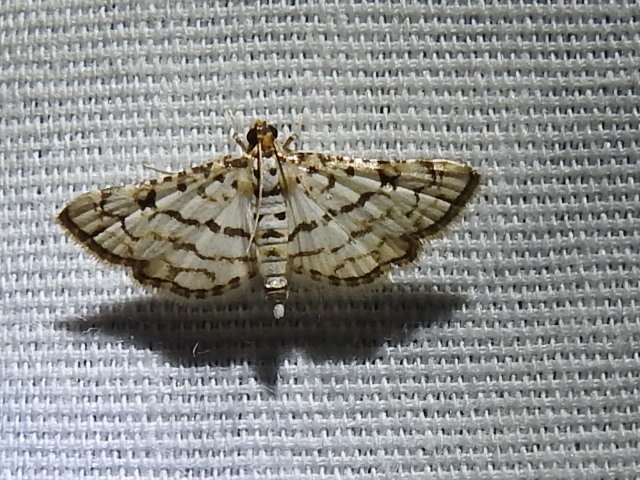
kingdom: Animalia
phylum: Arthropoda
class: Insecta
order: Lepidoptera
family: Crambidae
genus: Hileithia
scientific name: Hileithia aplicalis
